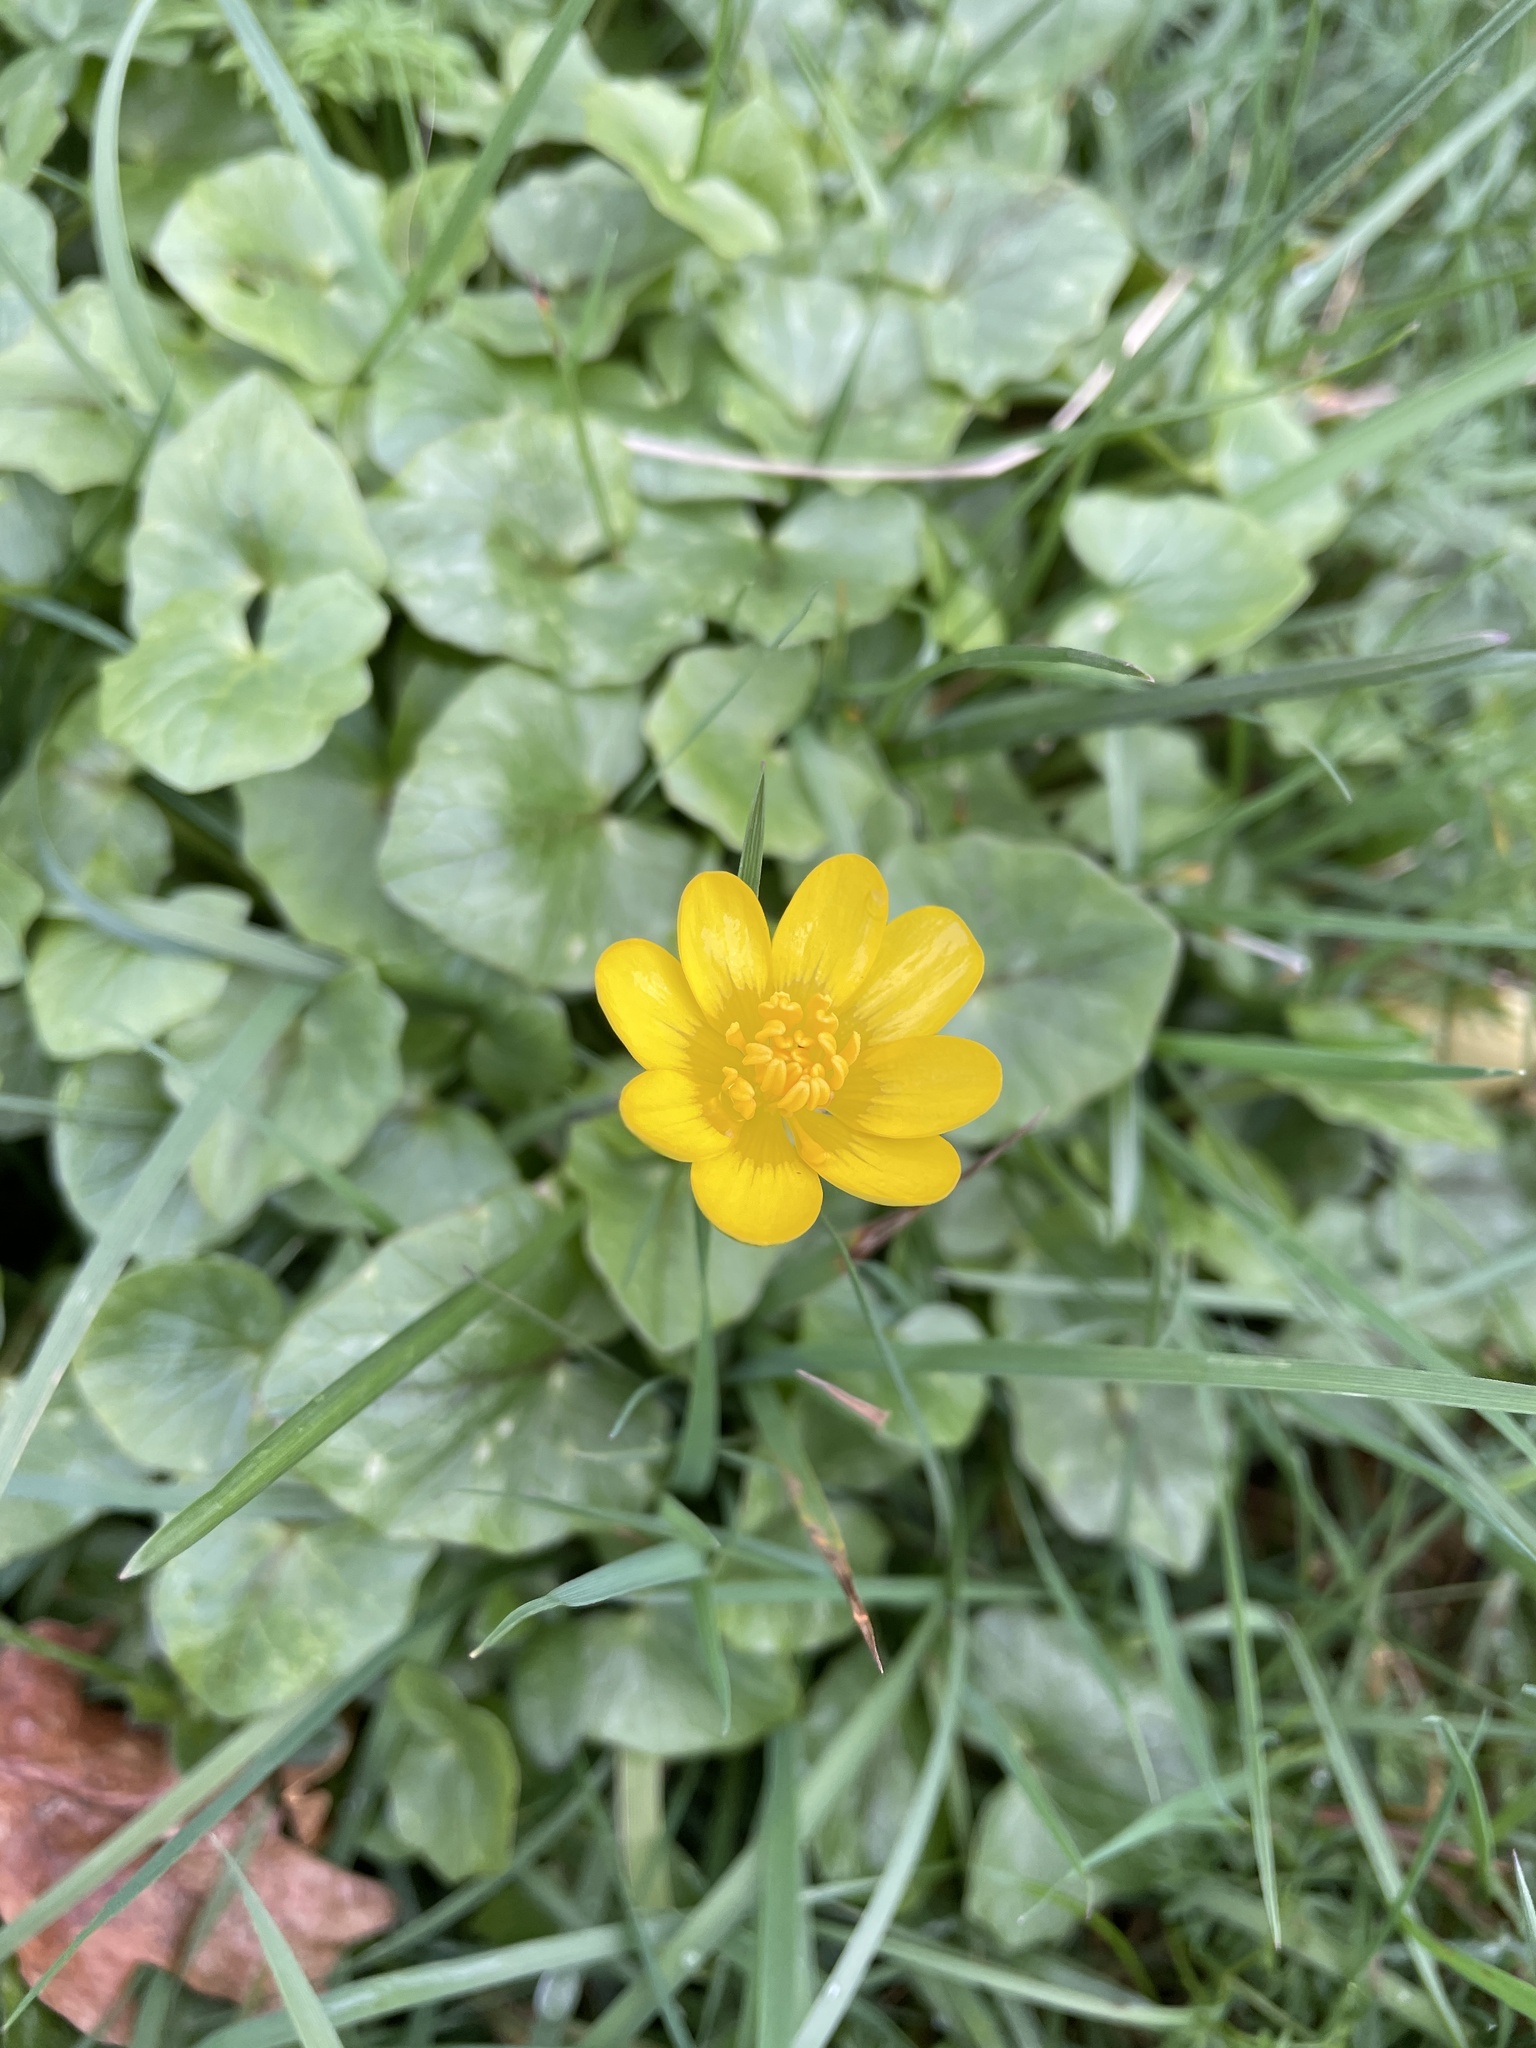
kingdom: Plantae
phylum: Tracheophyta
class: Magnoliopsida
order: Ranunculales
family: Ranunculaceae
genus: Ficaria
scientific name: Ficaria verna
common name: Lesser celandine
